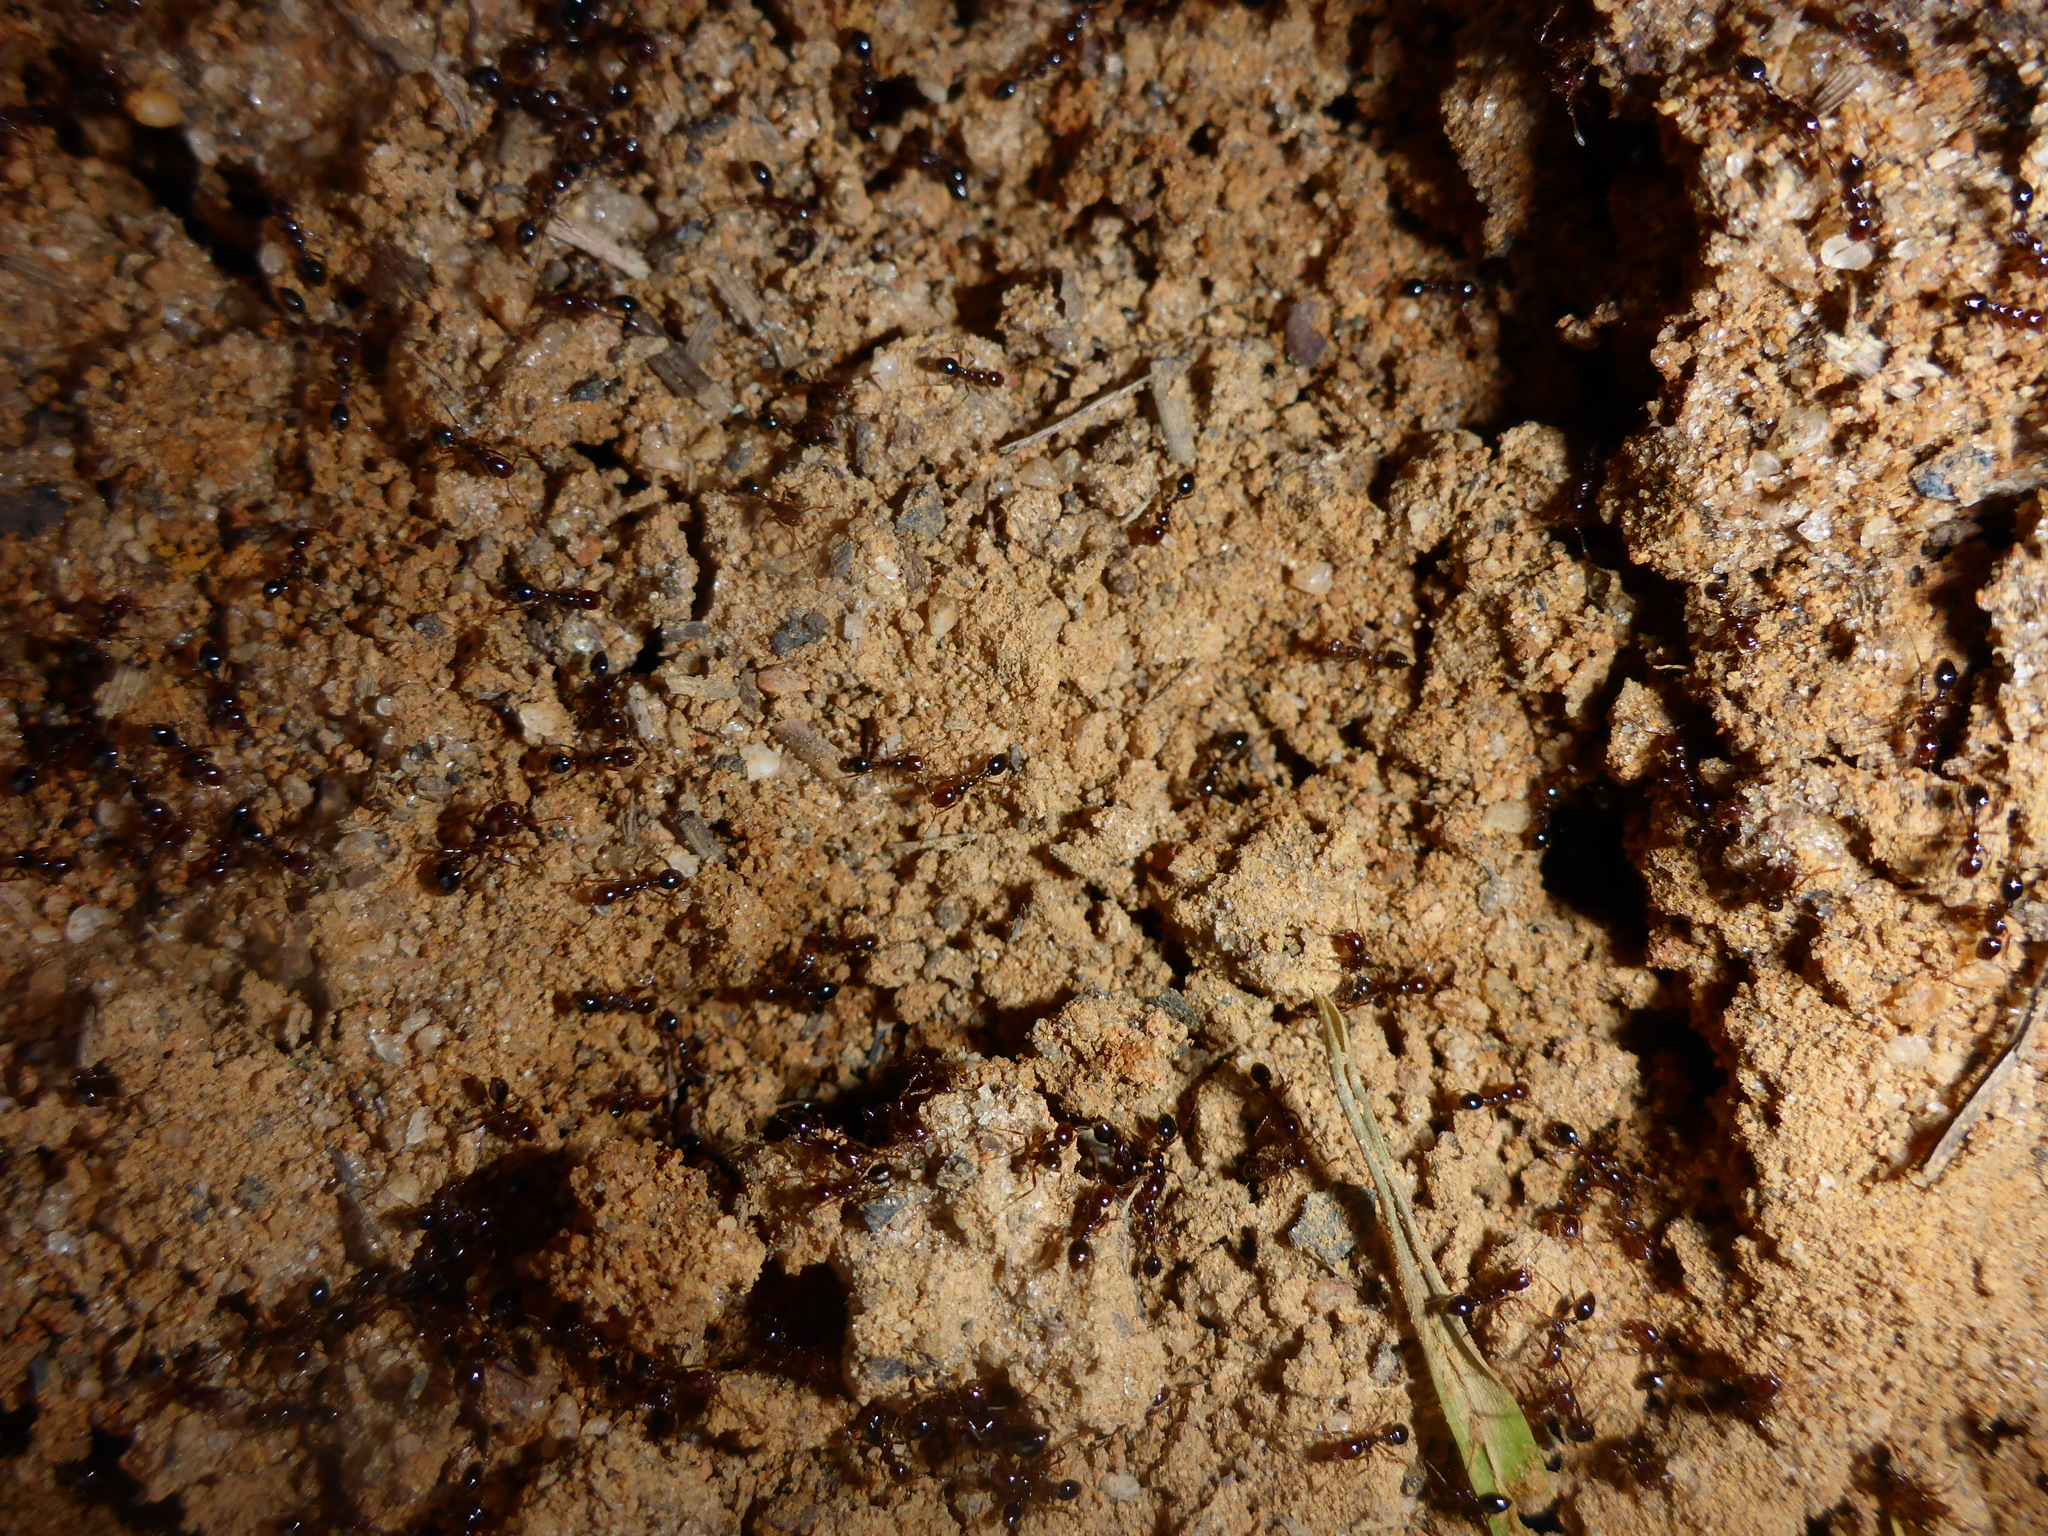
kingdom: Animalia
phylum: Arthropoda
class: Insecta
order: Hymenoptera
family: Formicidae
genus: Solenopsis
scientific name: Solenopsis invicta
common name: Red imported fire ant
